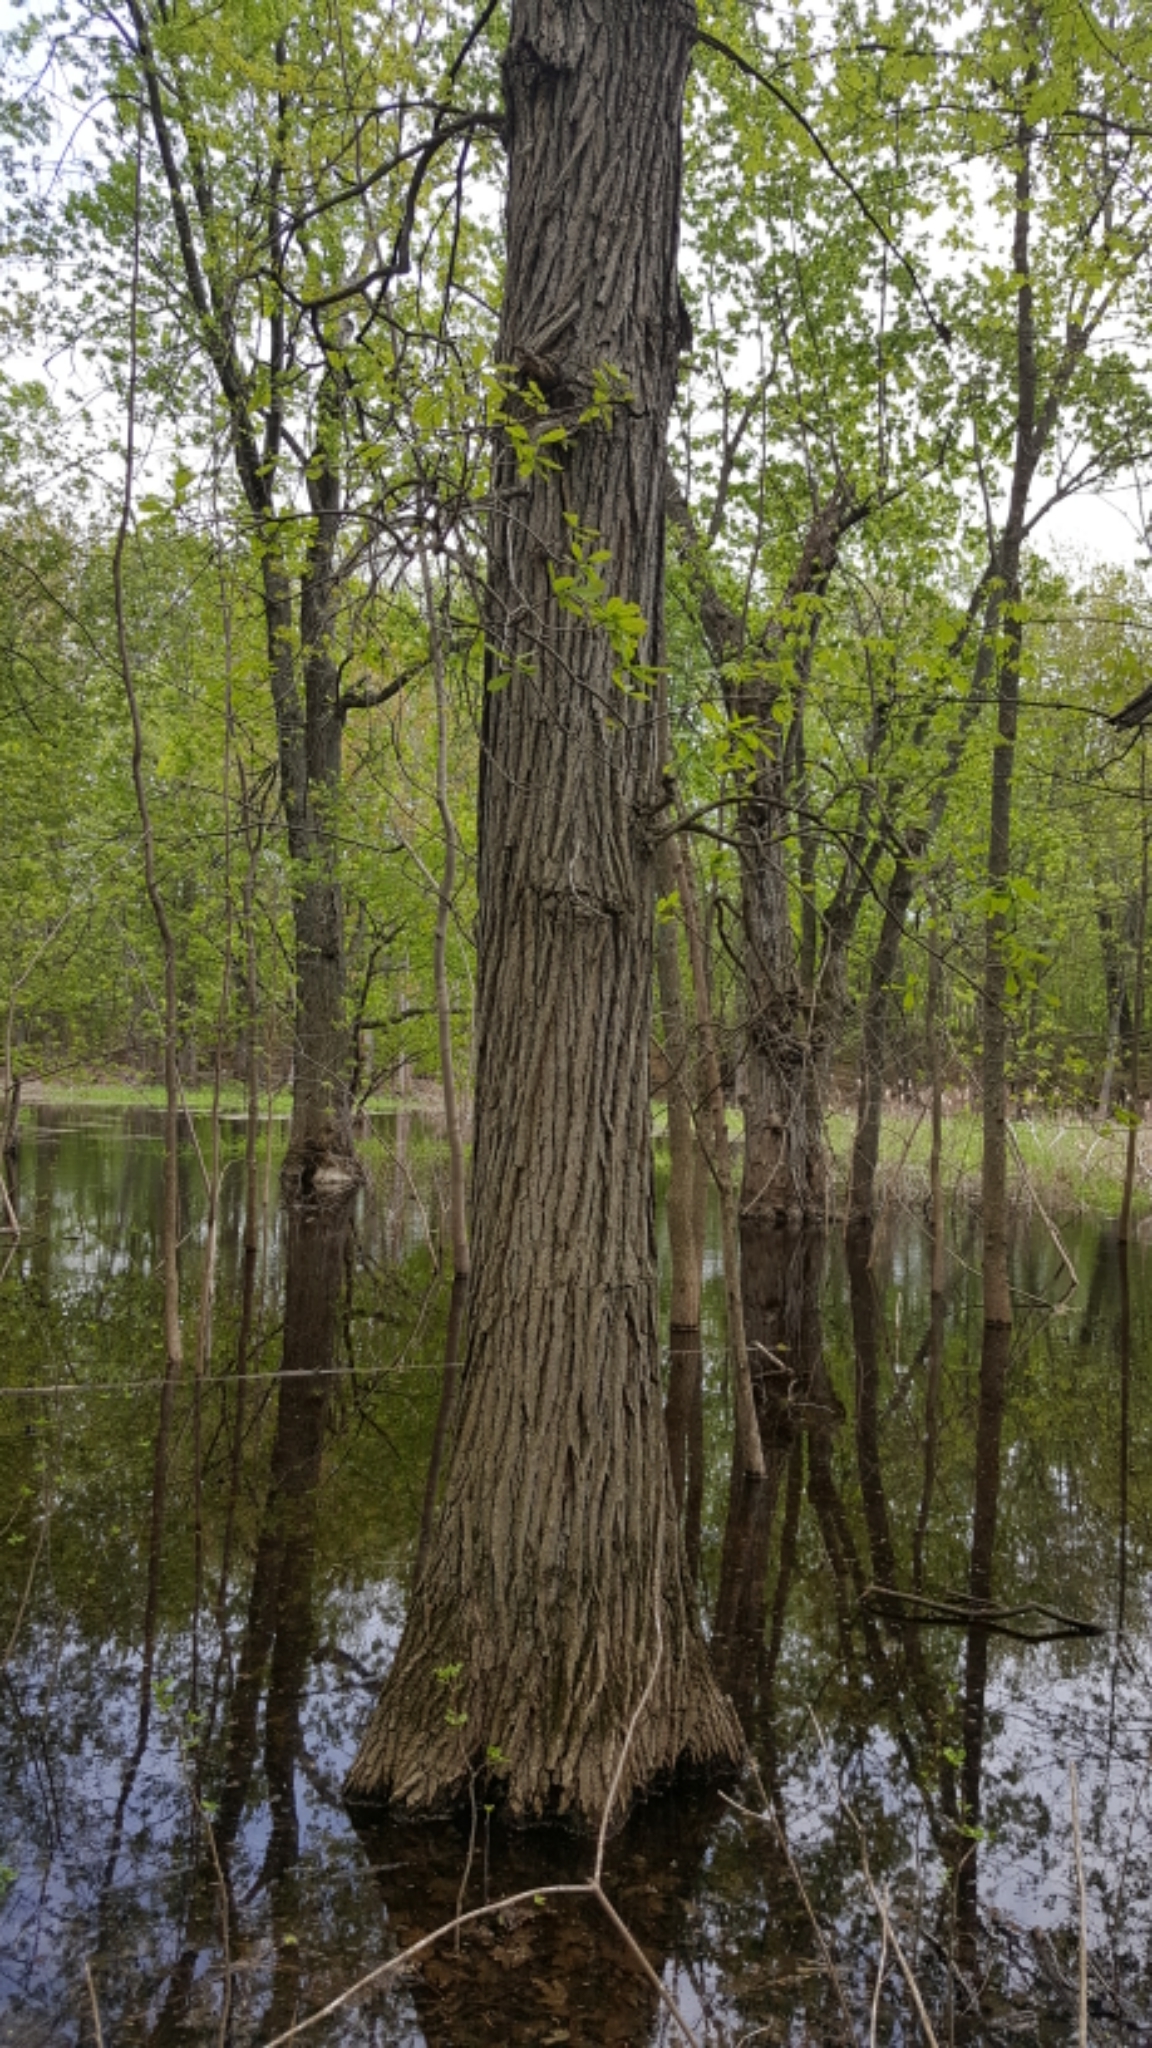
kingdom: Plantae
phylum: Tracheophyta
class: Magnoliopsida
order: Fagales
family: Fagaceae
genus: Quercus
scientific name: Quercus bicolor
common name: Swamp white oak
